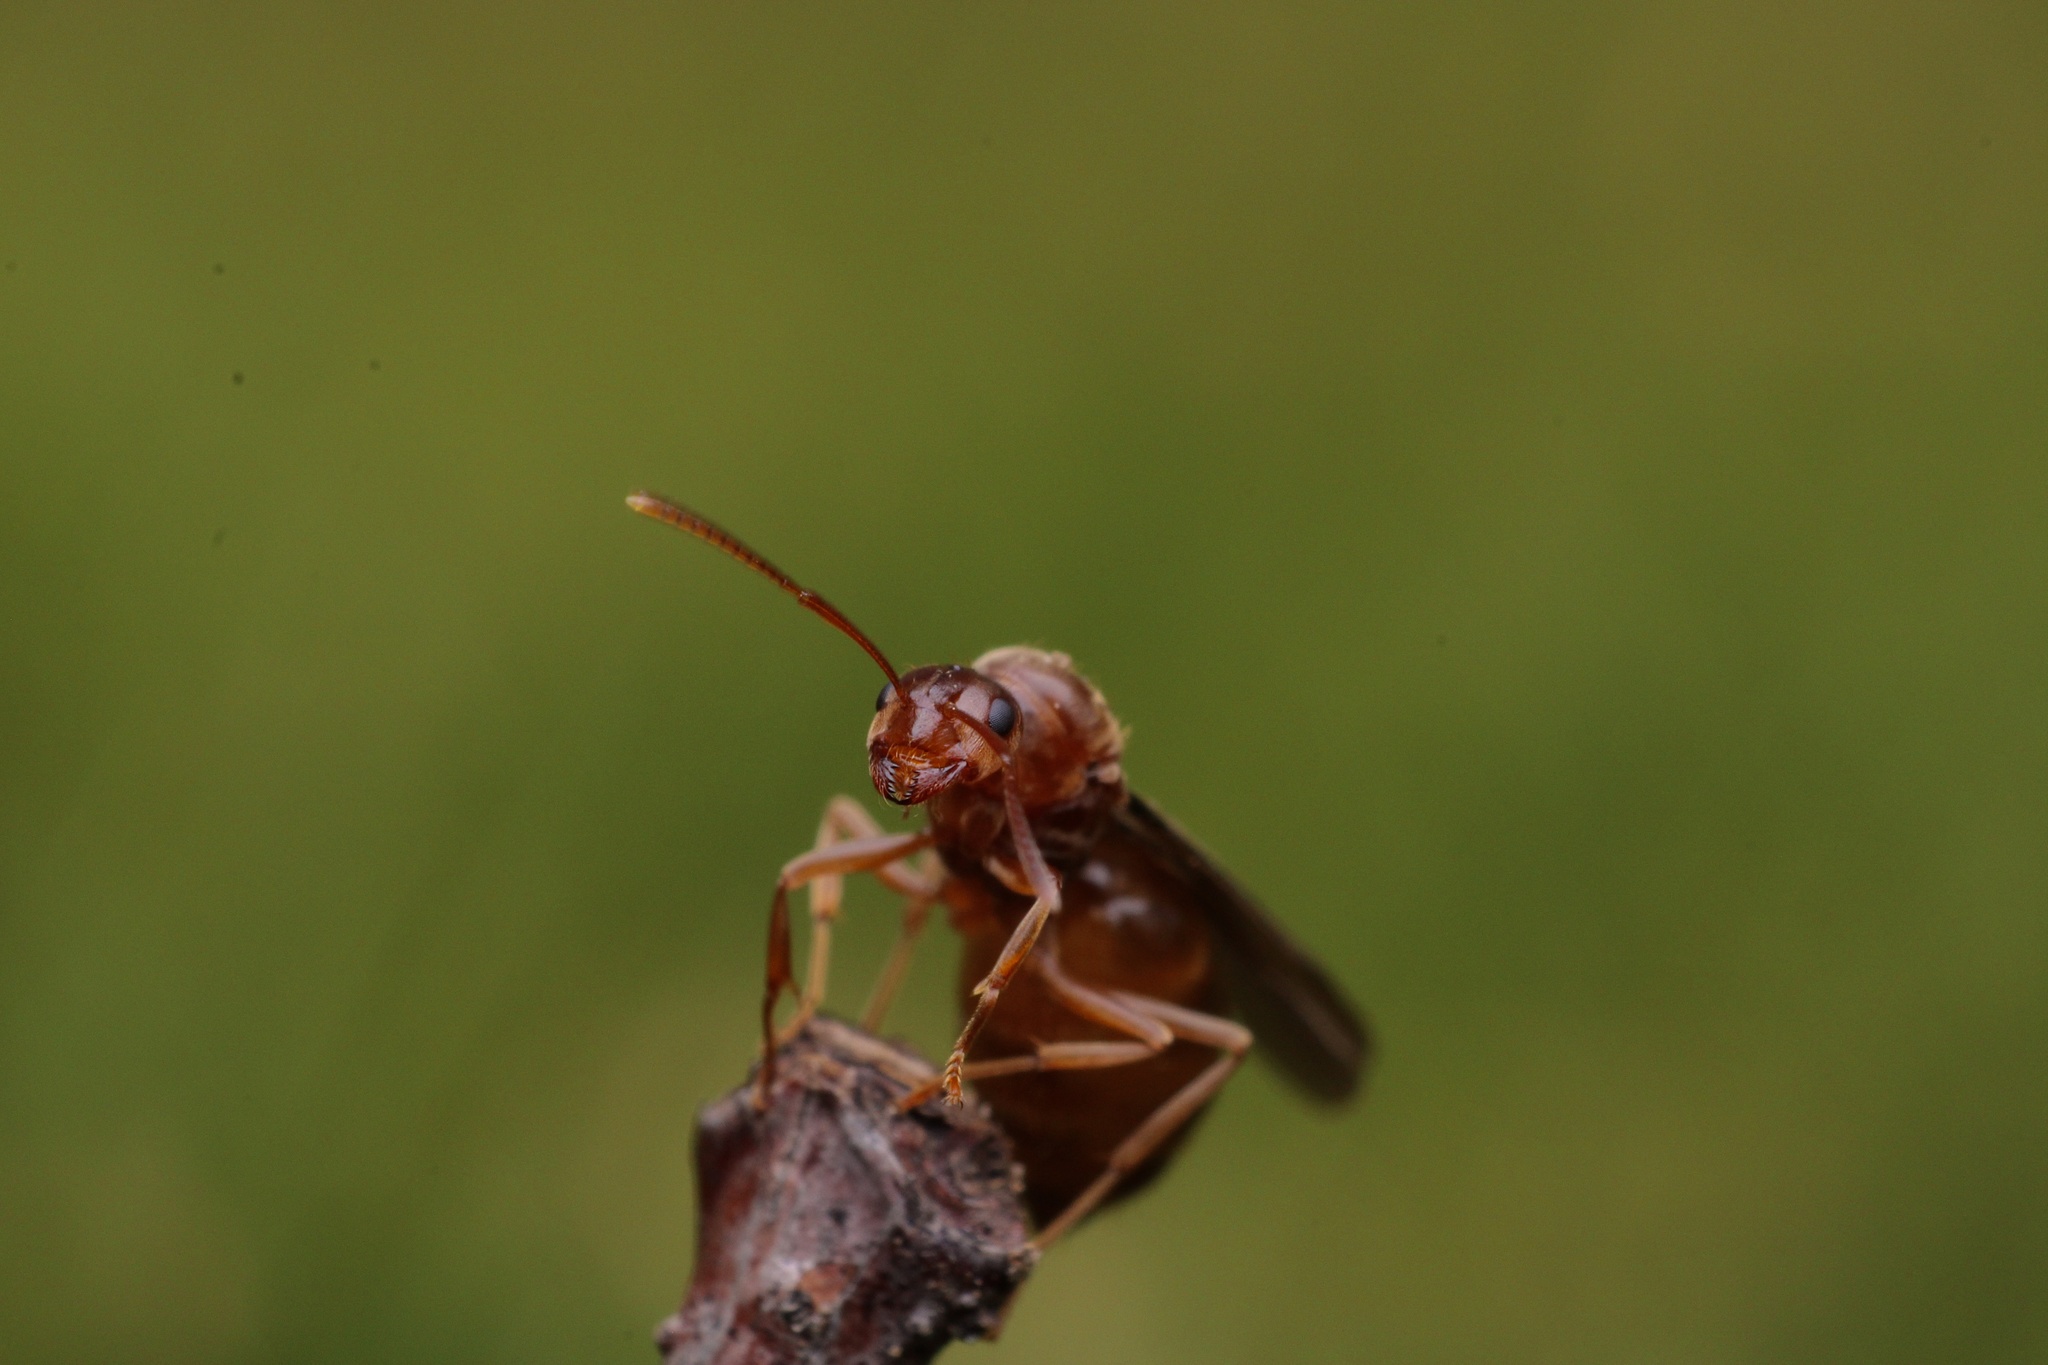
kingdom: Animalia
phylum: Arthropoda
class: Insecta
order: Hymenoptera
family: Formicidae
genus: Prenolepis
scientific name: Prenolepis imparis
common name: Small honey ant
